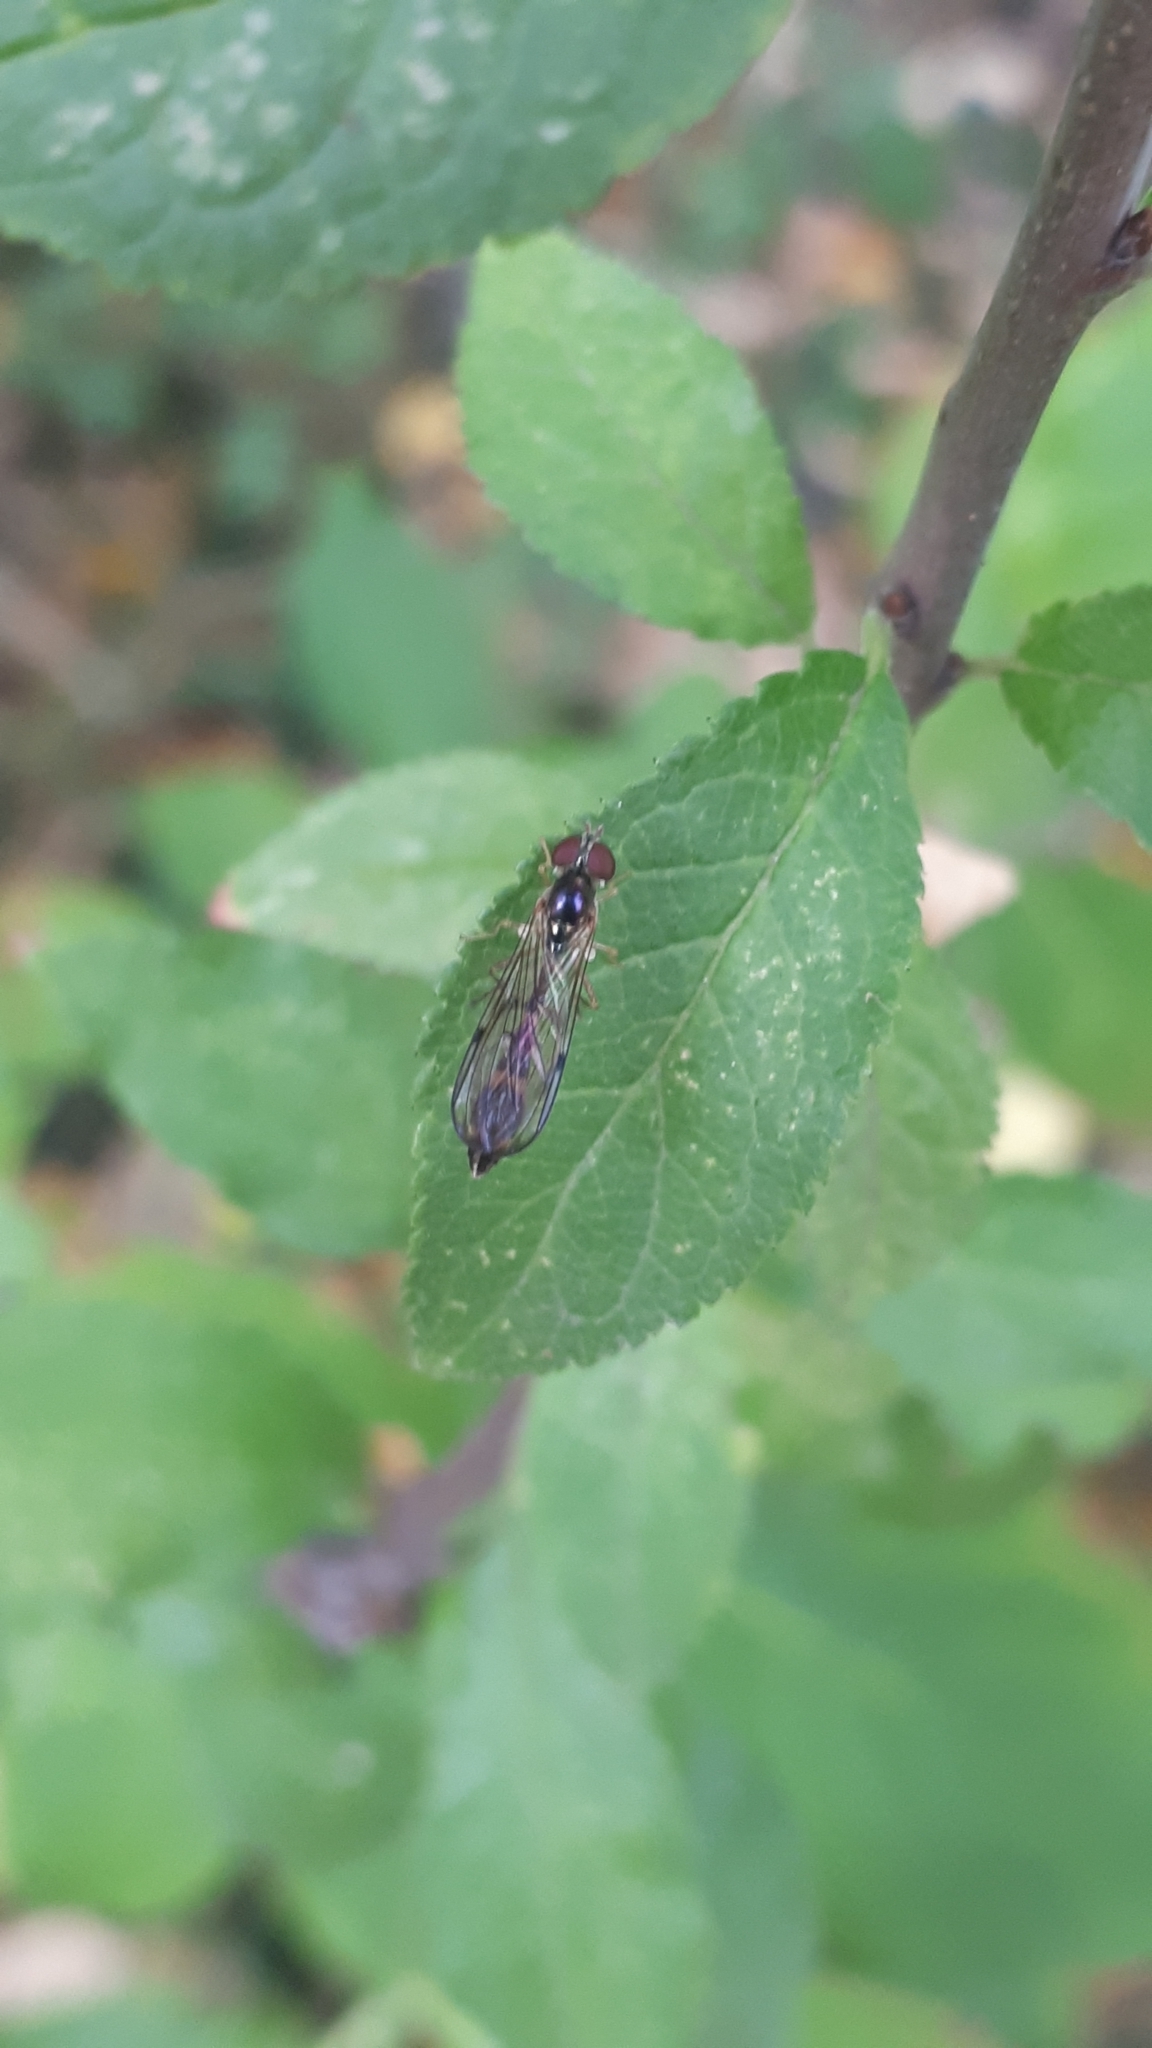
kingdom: Animalia
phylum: Arthropoda
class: Insecta
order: Diptera
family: Syrphidae
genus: Baccha
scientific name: Baccha elongata
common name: Common dainty
